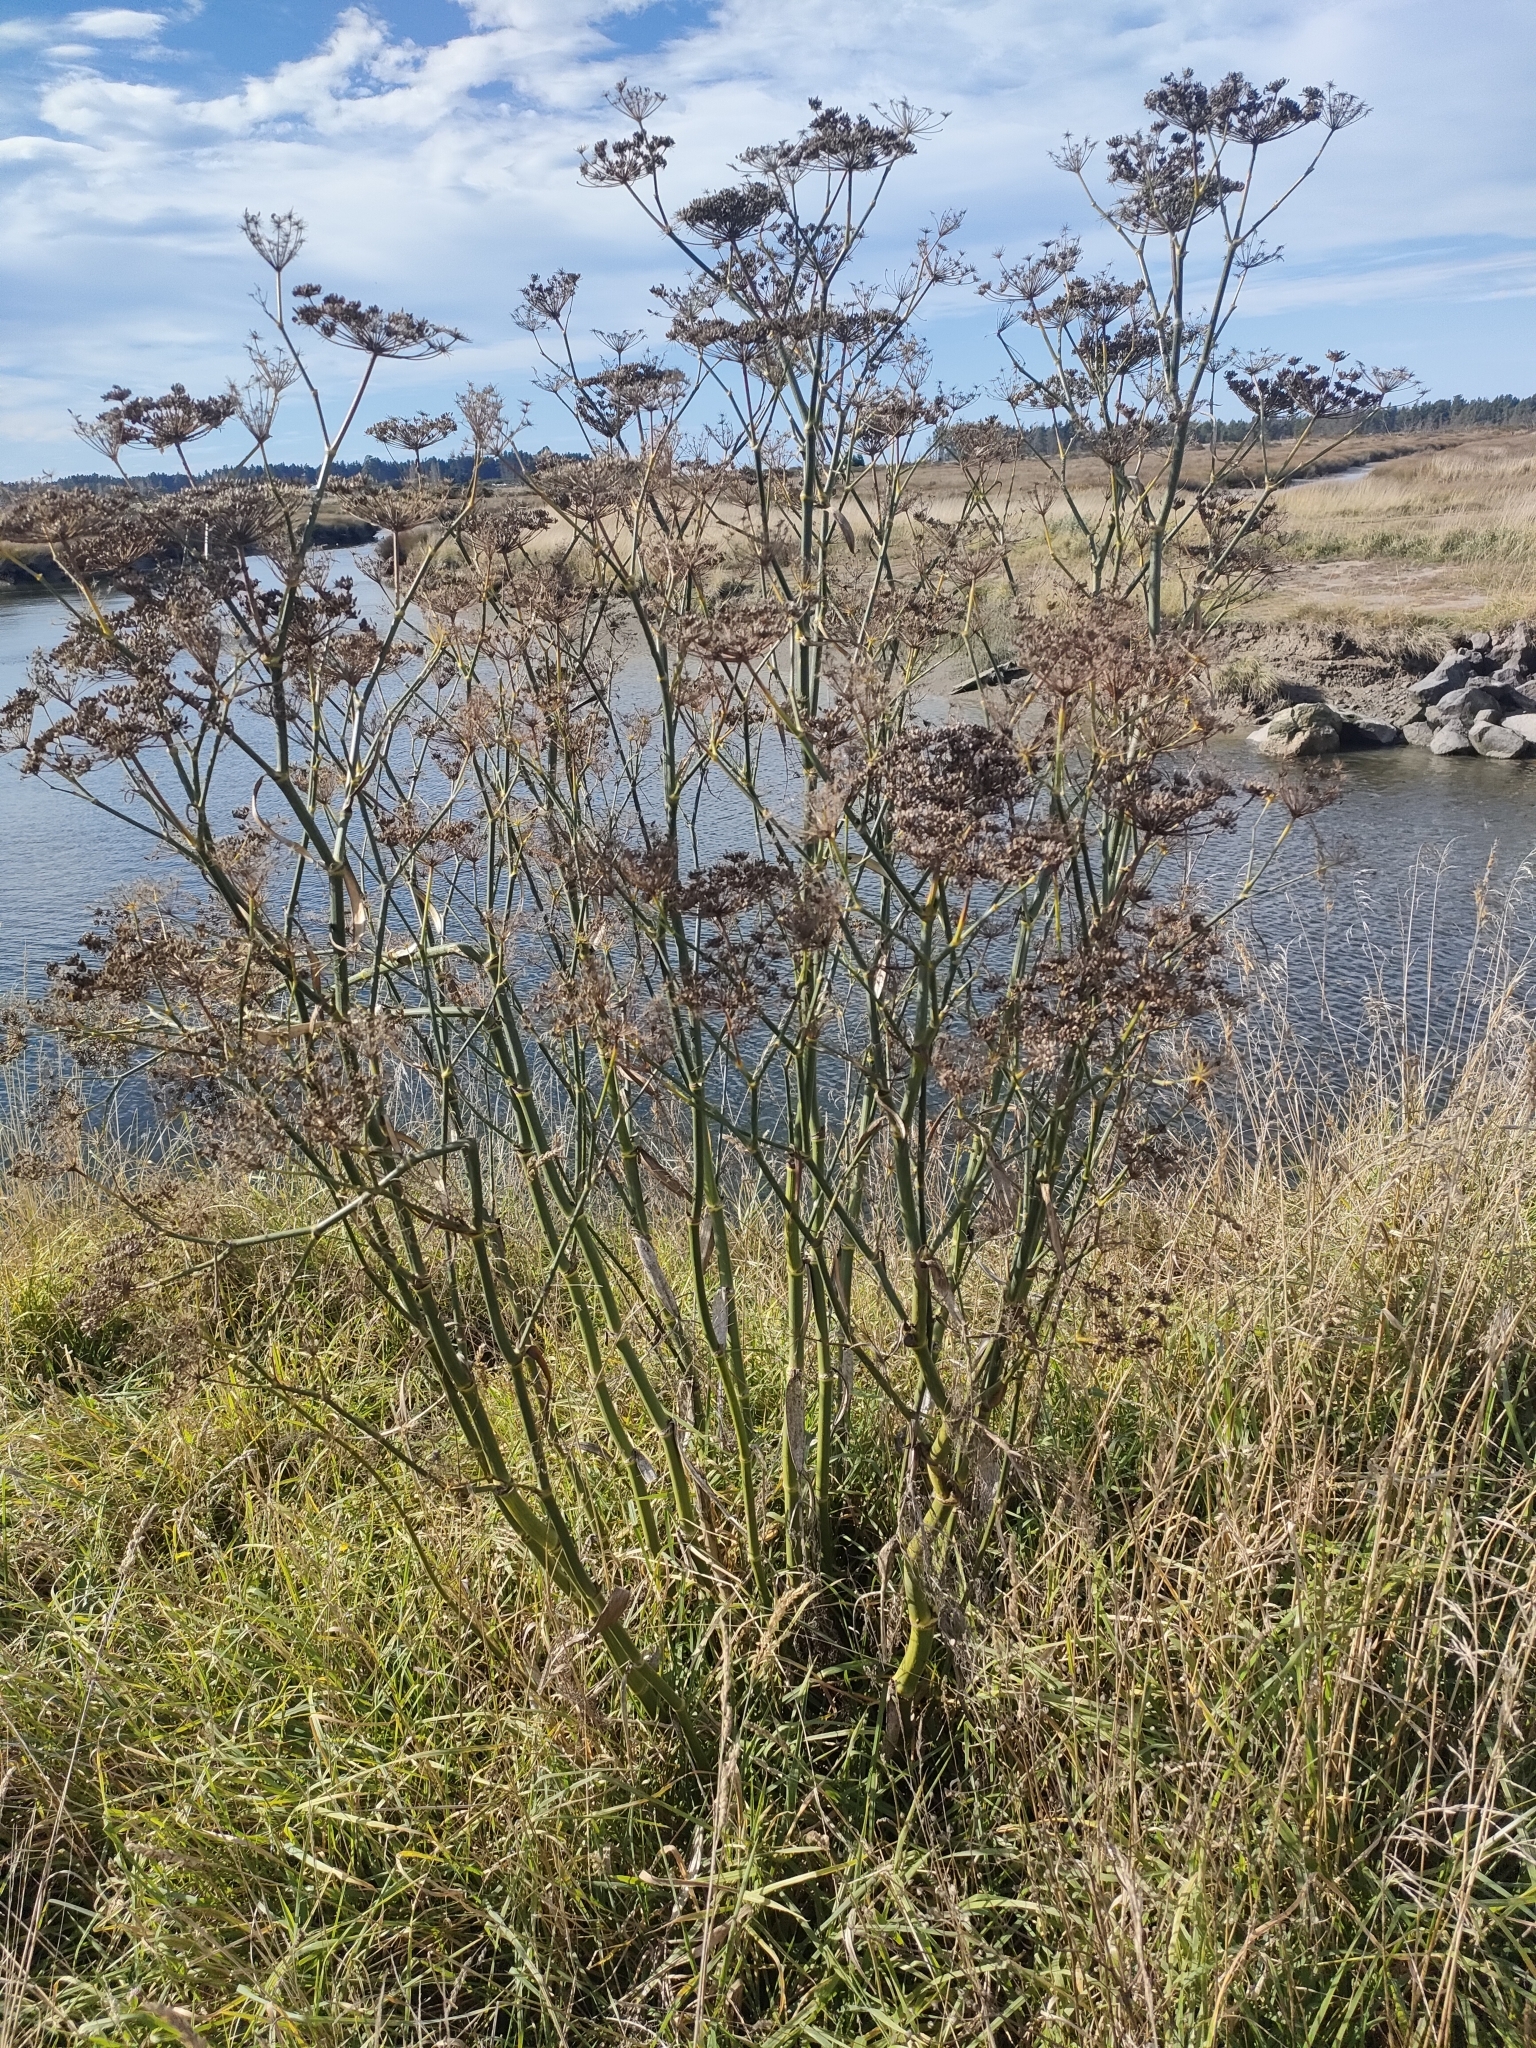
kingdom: Plantae
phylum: Tracheophyta
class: Magnoliopsida
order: Apiales
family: Apiaceae
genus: Foeniculum
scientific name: Foeniculum vulgare
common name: Fennel
